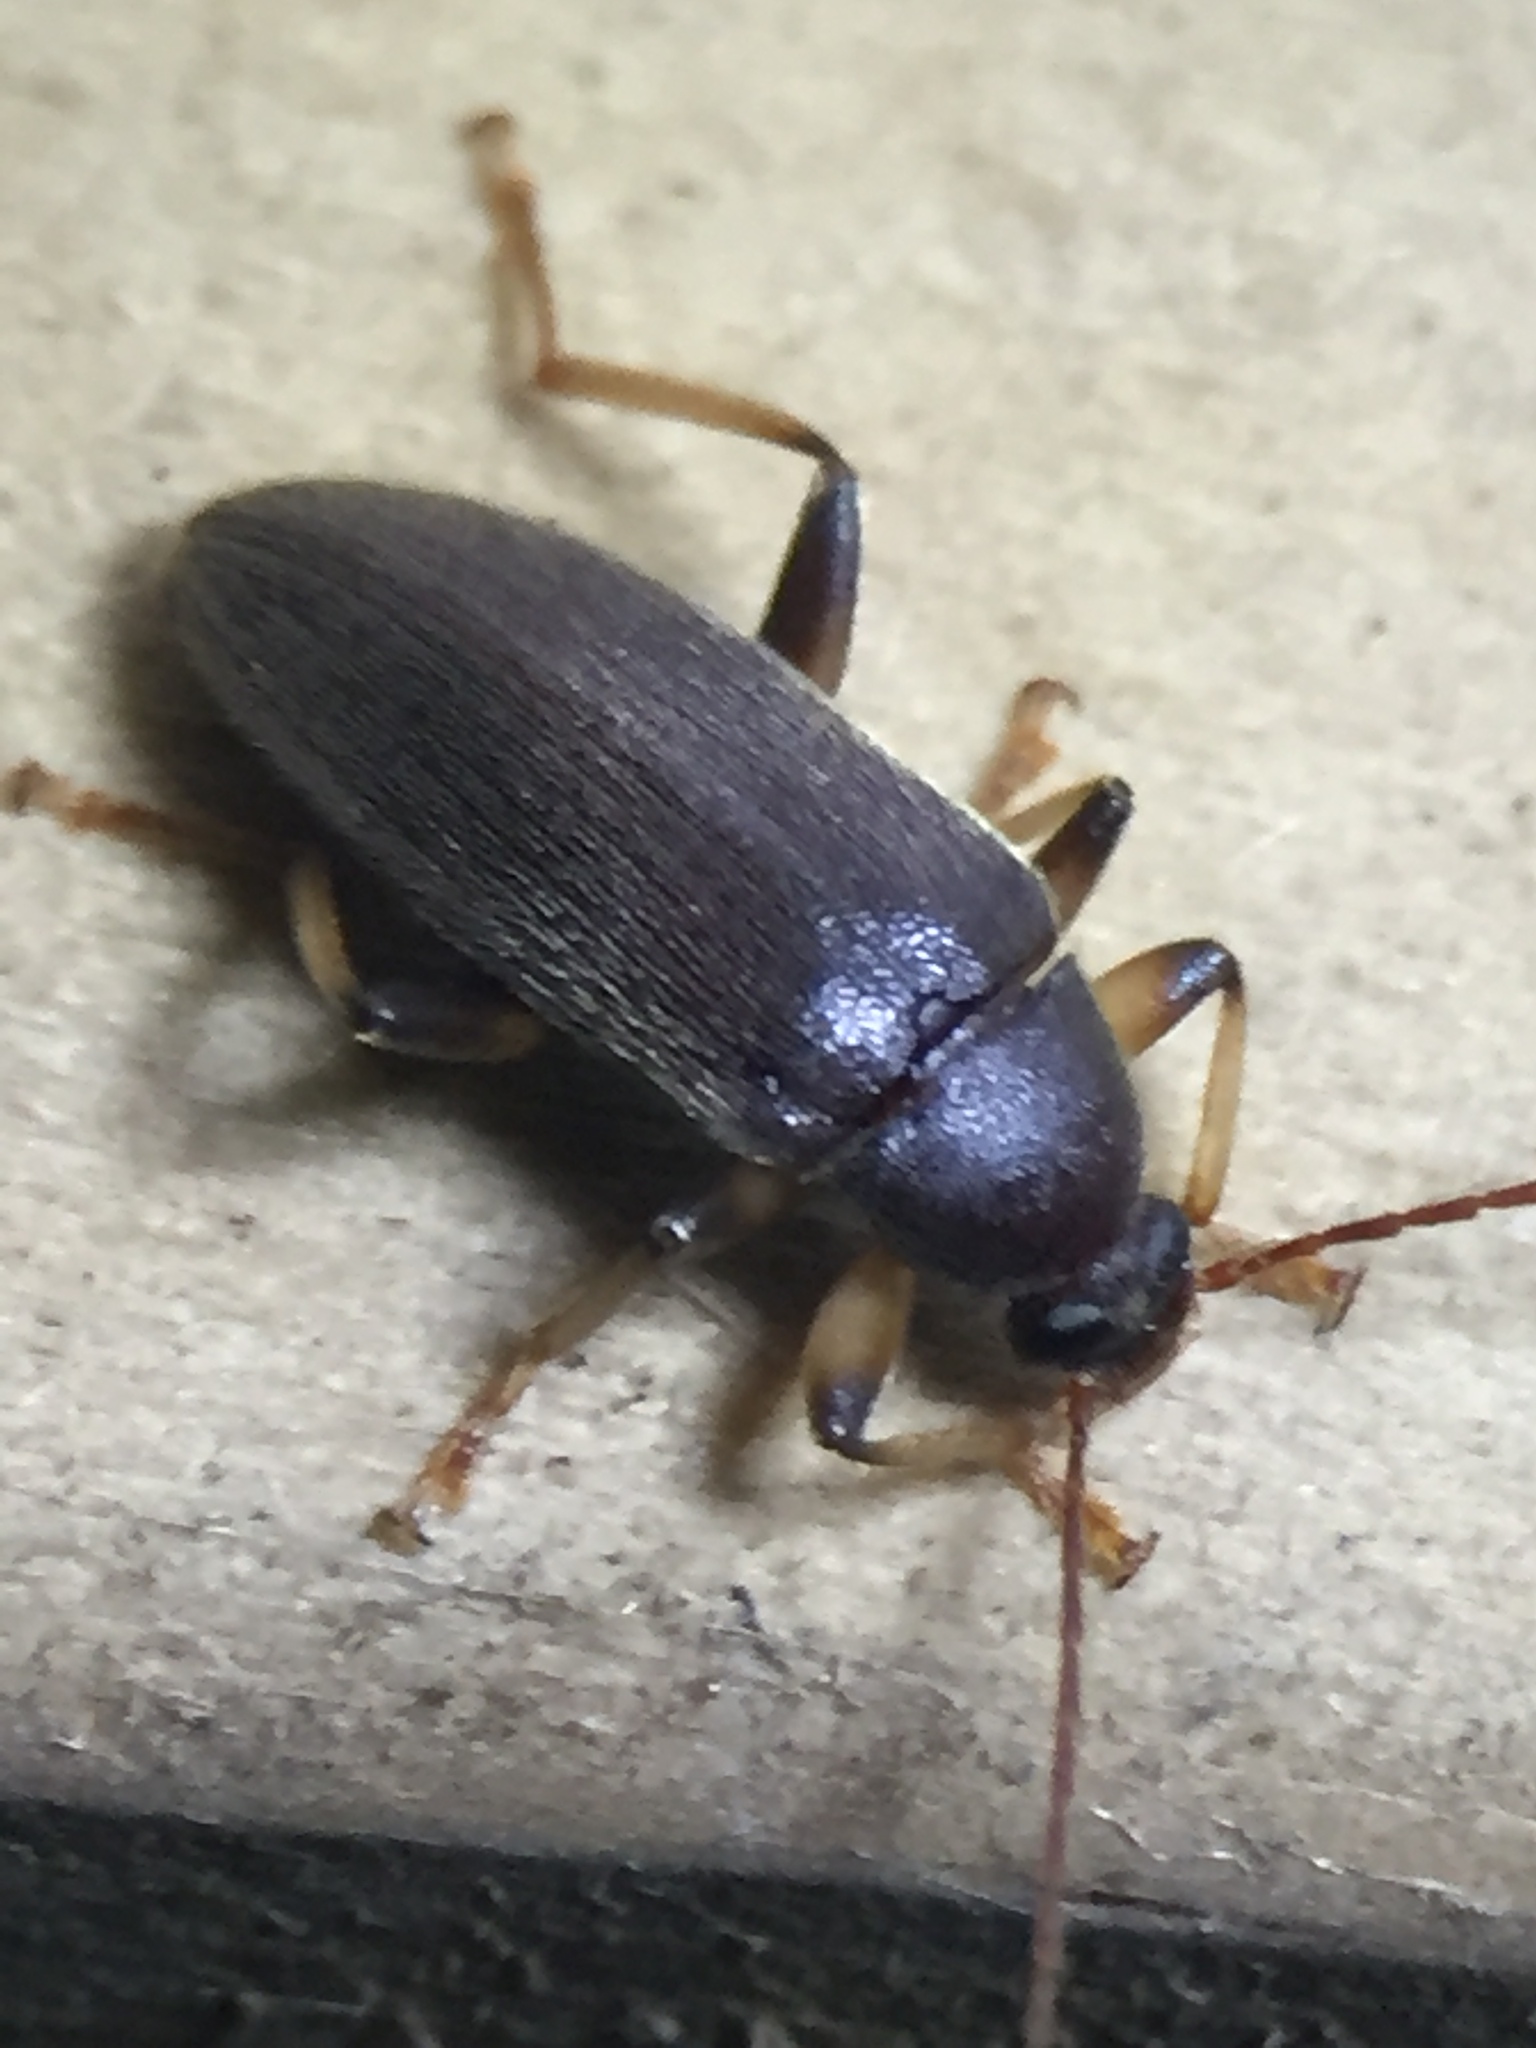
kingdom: Animalia
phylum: Arthropoda
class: Insecta
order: Coleoptera
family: Tenebrionidae
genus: Homotrysis
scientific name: Homotrysis
